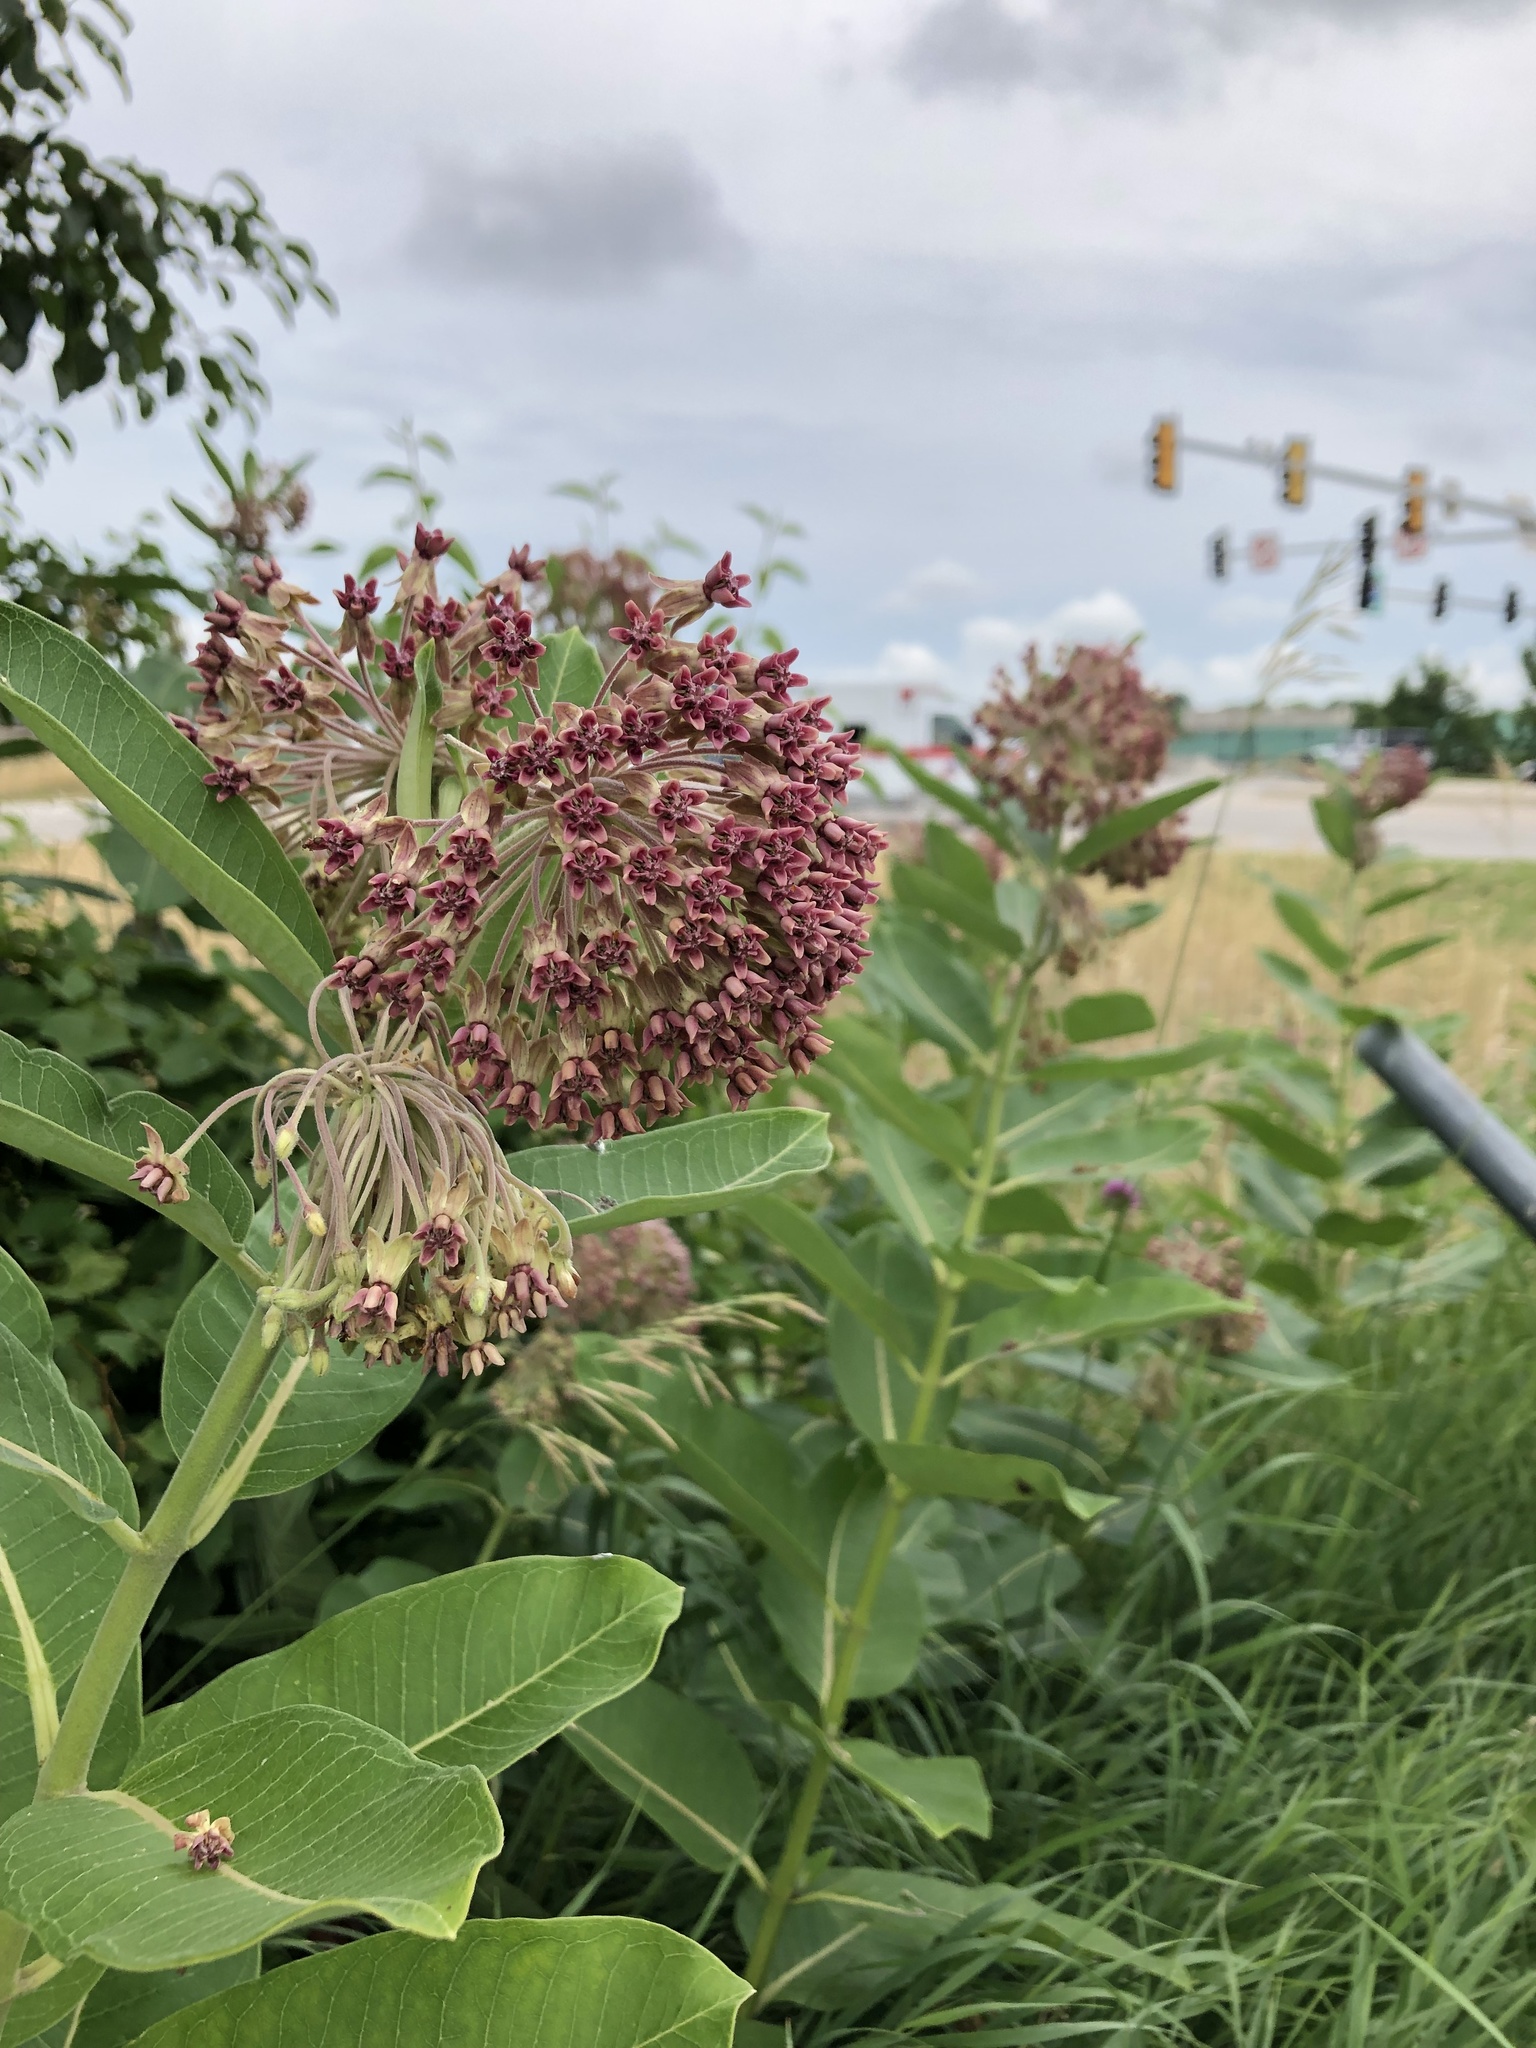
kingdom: Plantae
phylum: Tracheophyta
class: Magnoliopsida
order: Gentianales
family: Apocynaceae
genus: Asclepias
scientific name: Asclepias syriaca
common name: Common milkweed
